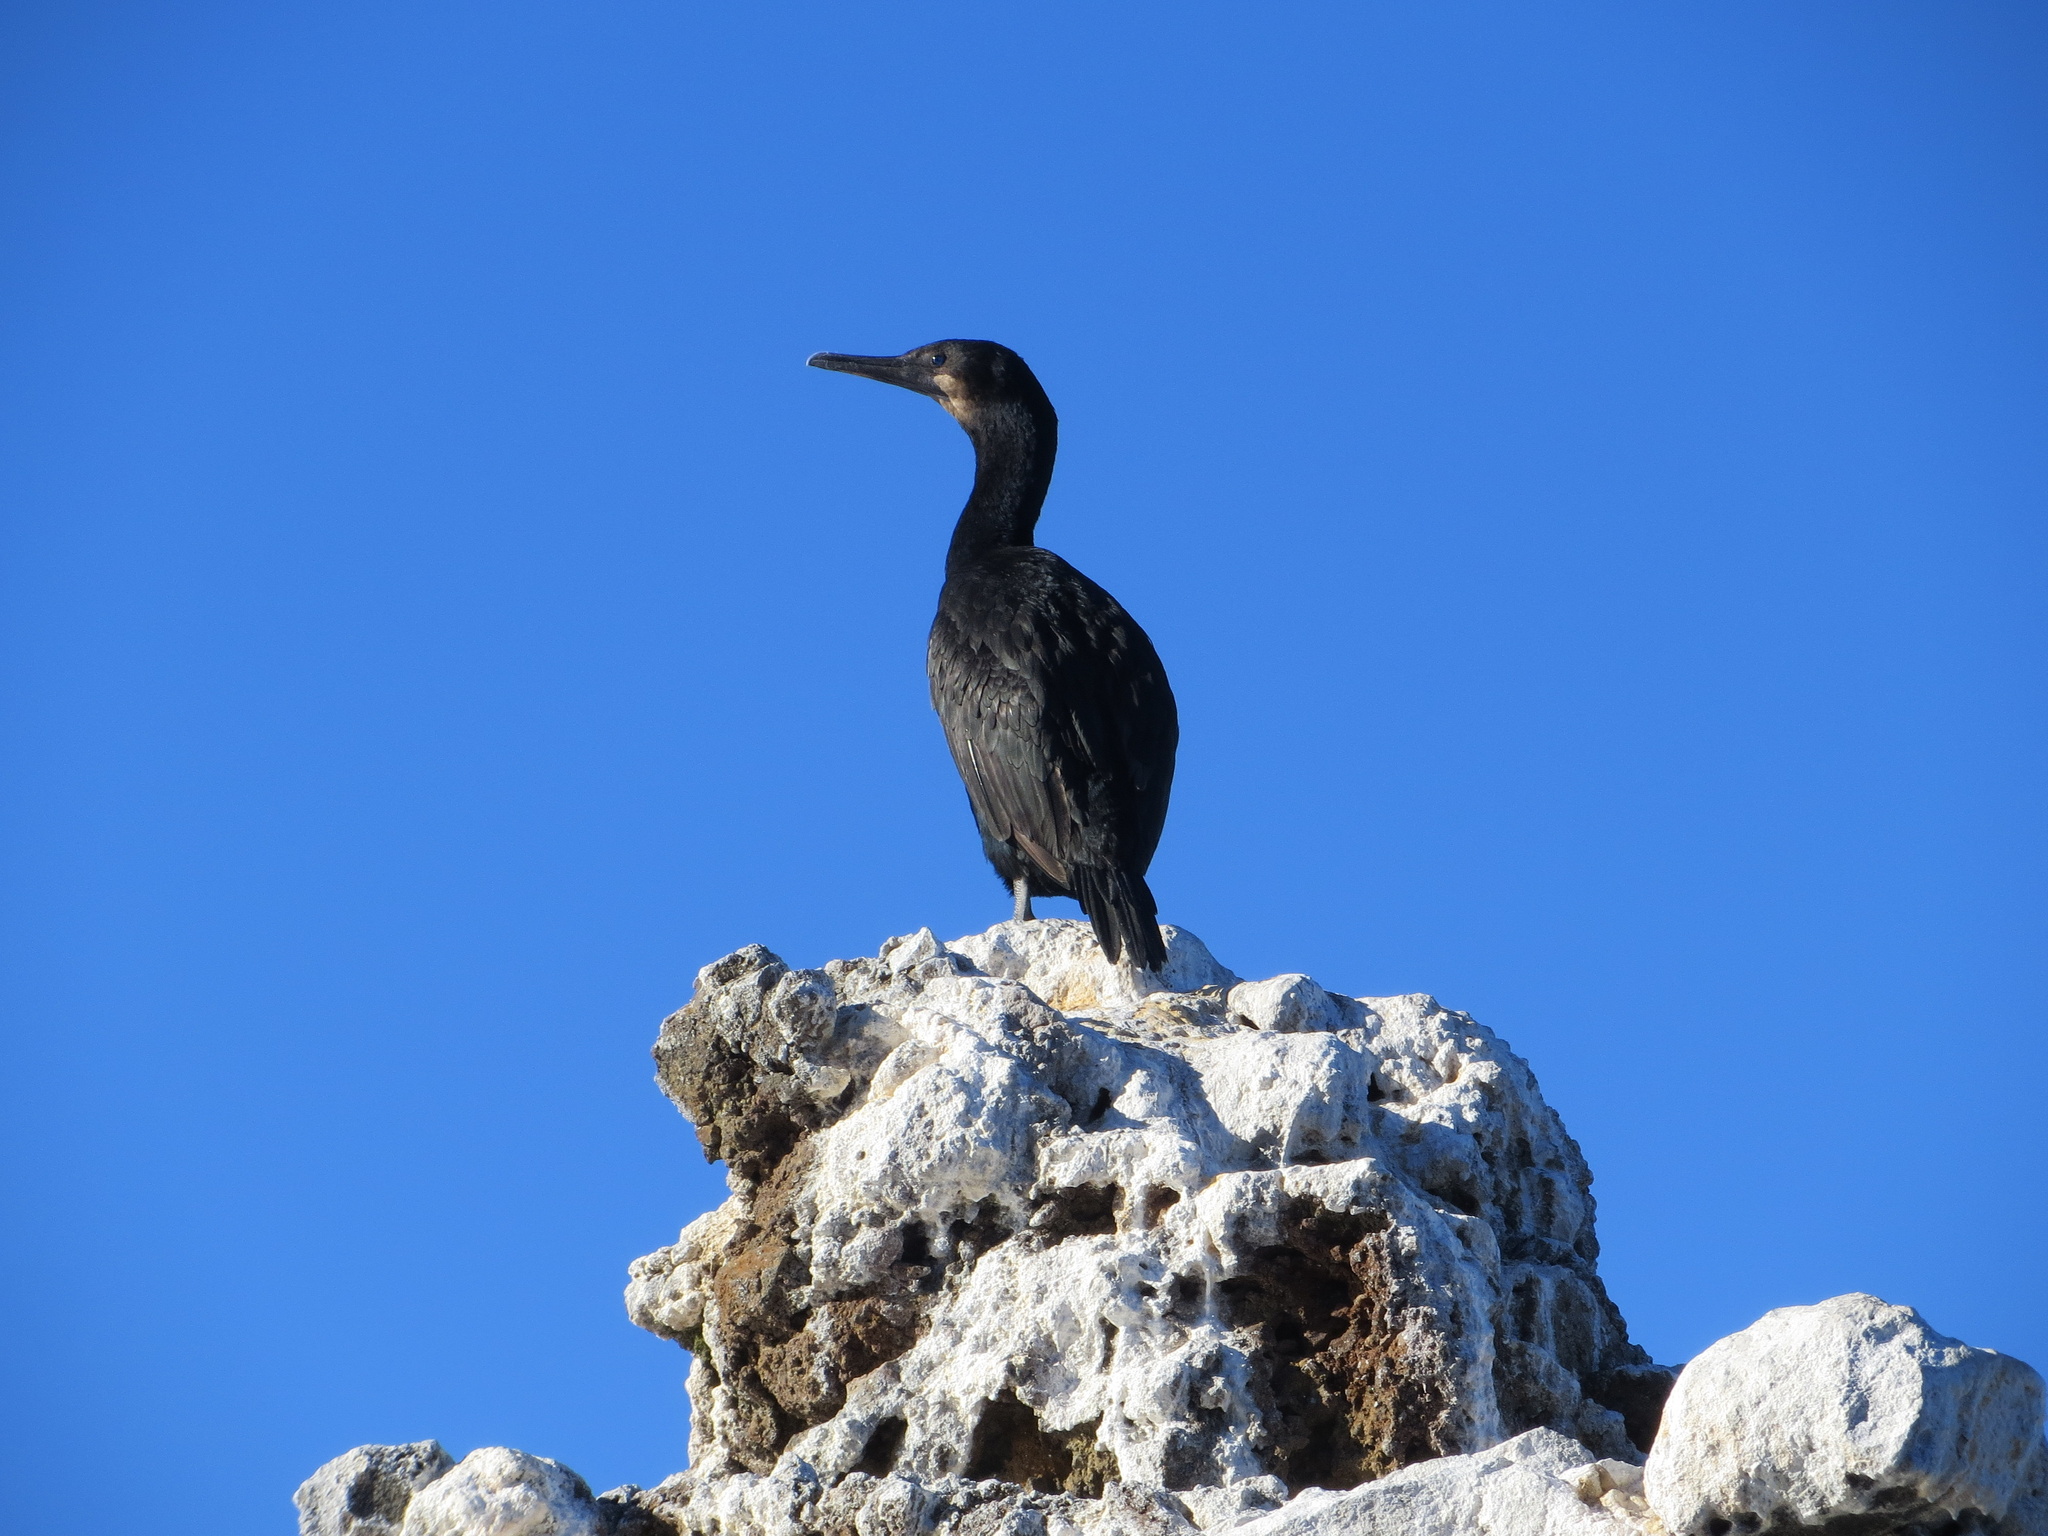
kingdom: Animalia
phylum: Chordata
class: Aves
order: Suliformes
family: Phalacrocoracidae
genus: Urile
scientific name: Urile penicillatus
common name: Brandt's cormorant
